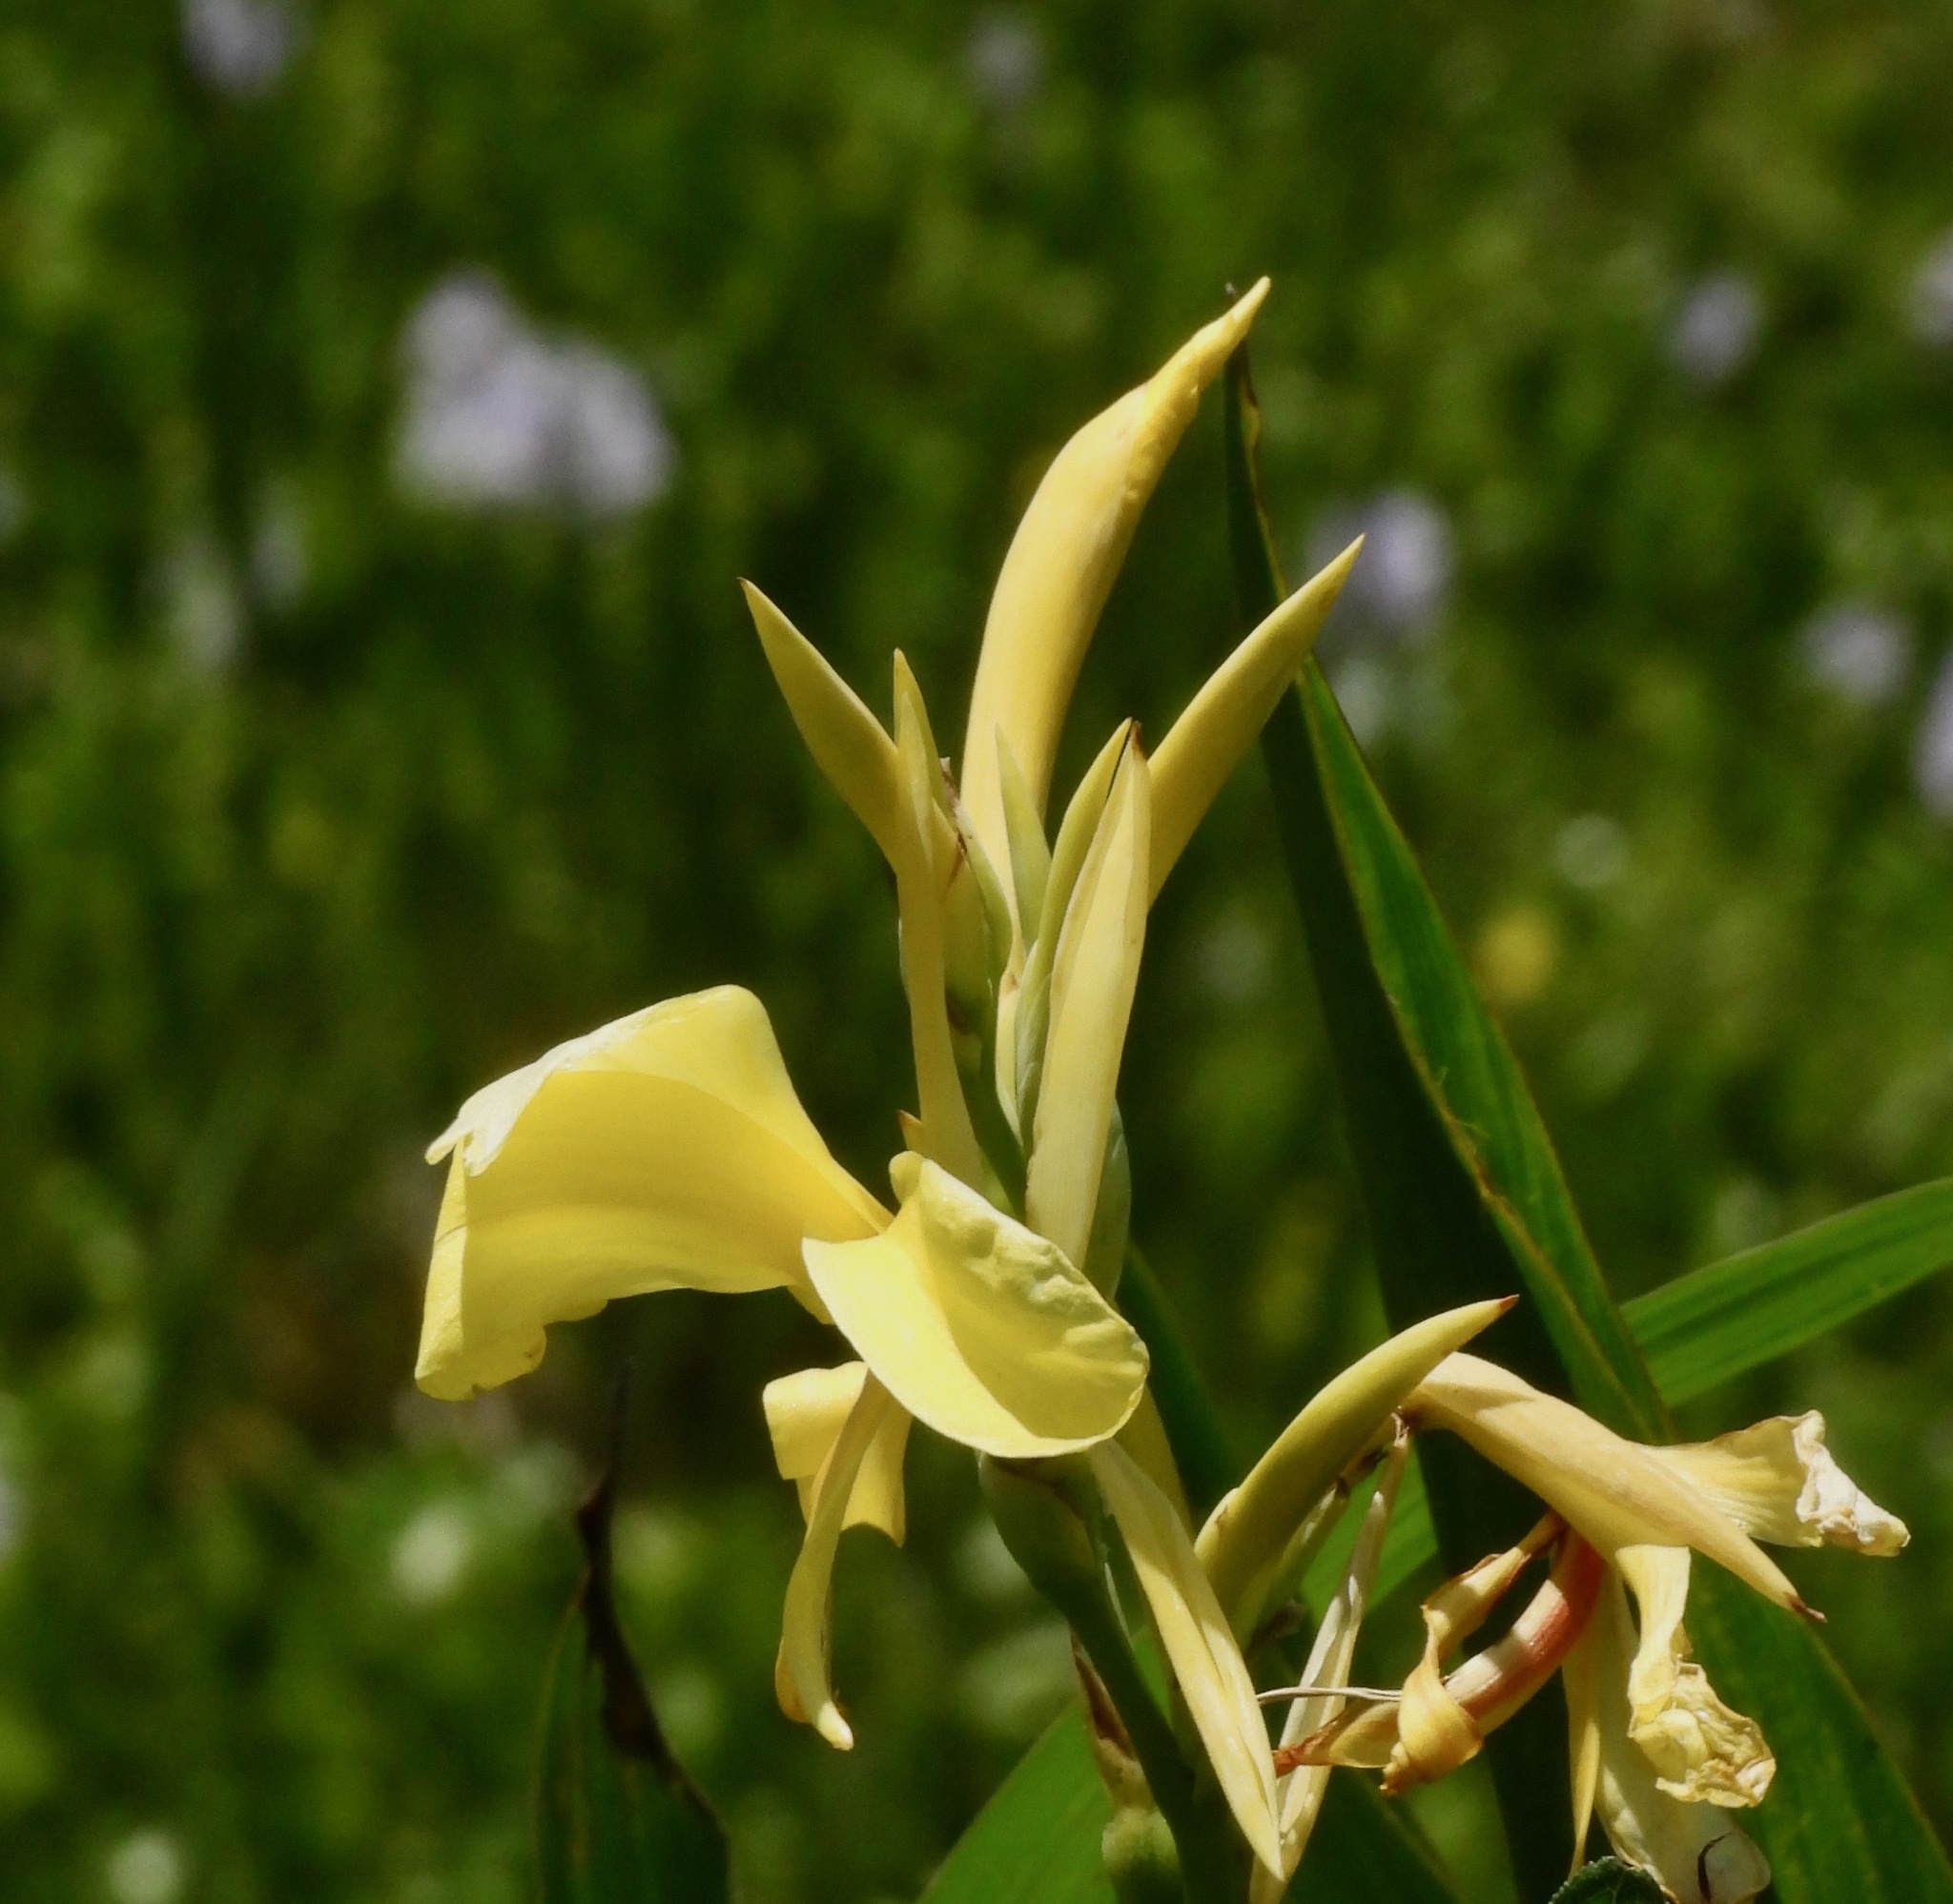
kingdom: Plantae
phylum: Tracheophyta
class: Liliopsida
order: Zingiberales
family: Cannaceae
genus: Canna
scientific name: Canna glauca
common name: Louisiana canna
